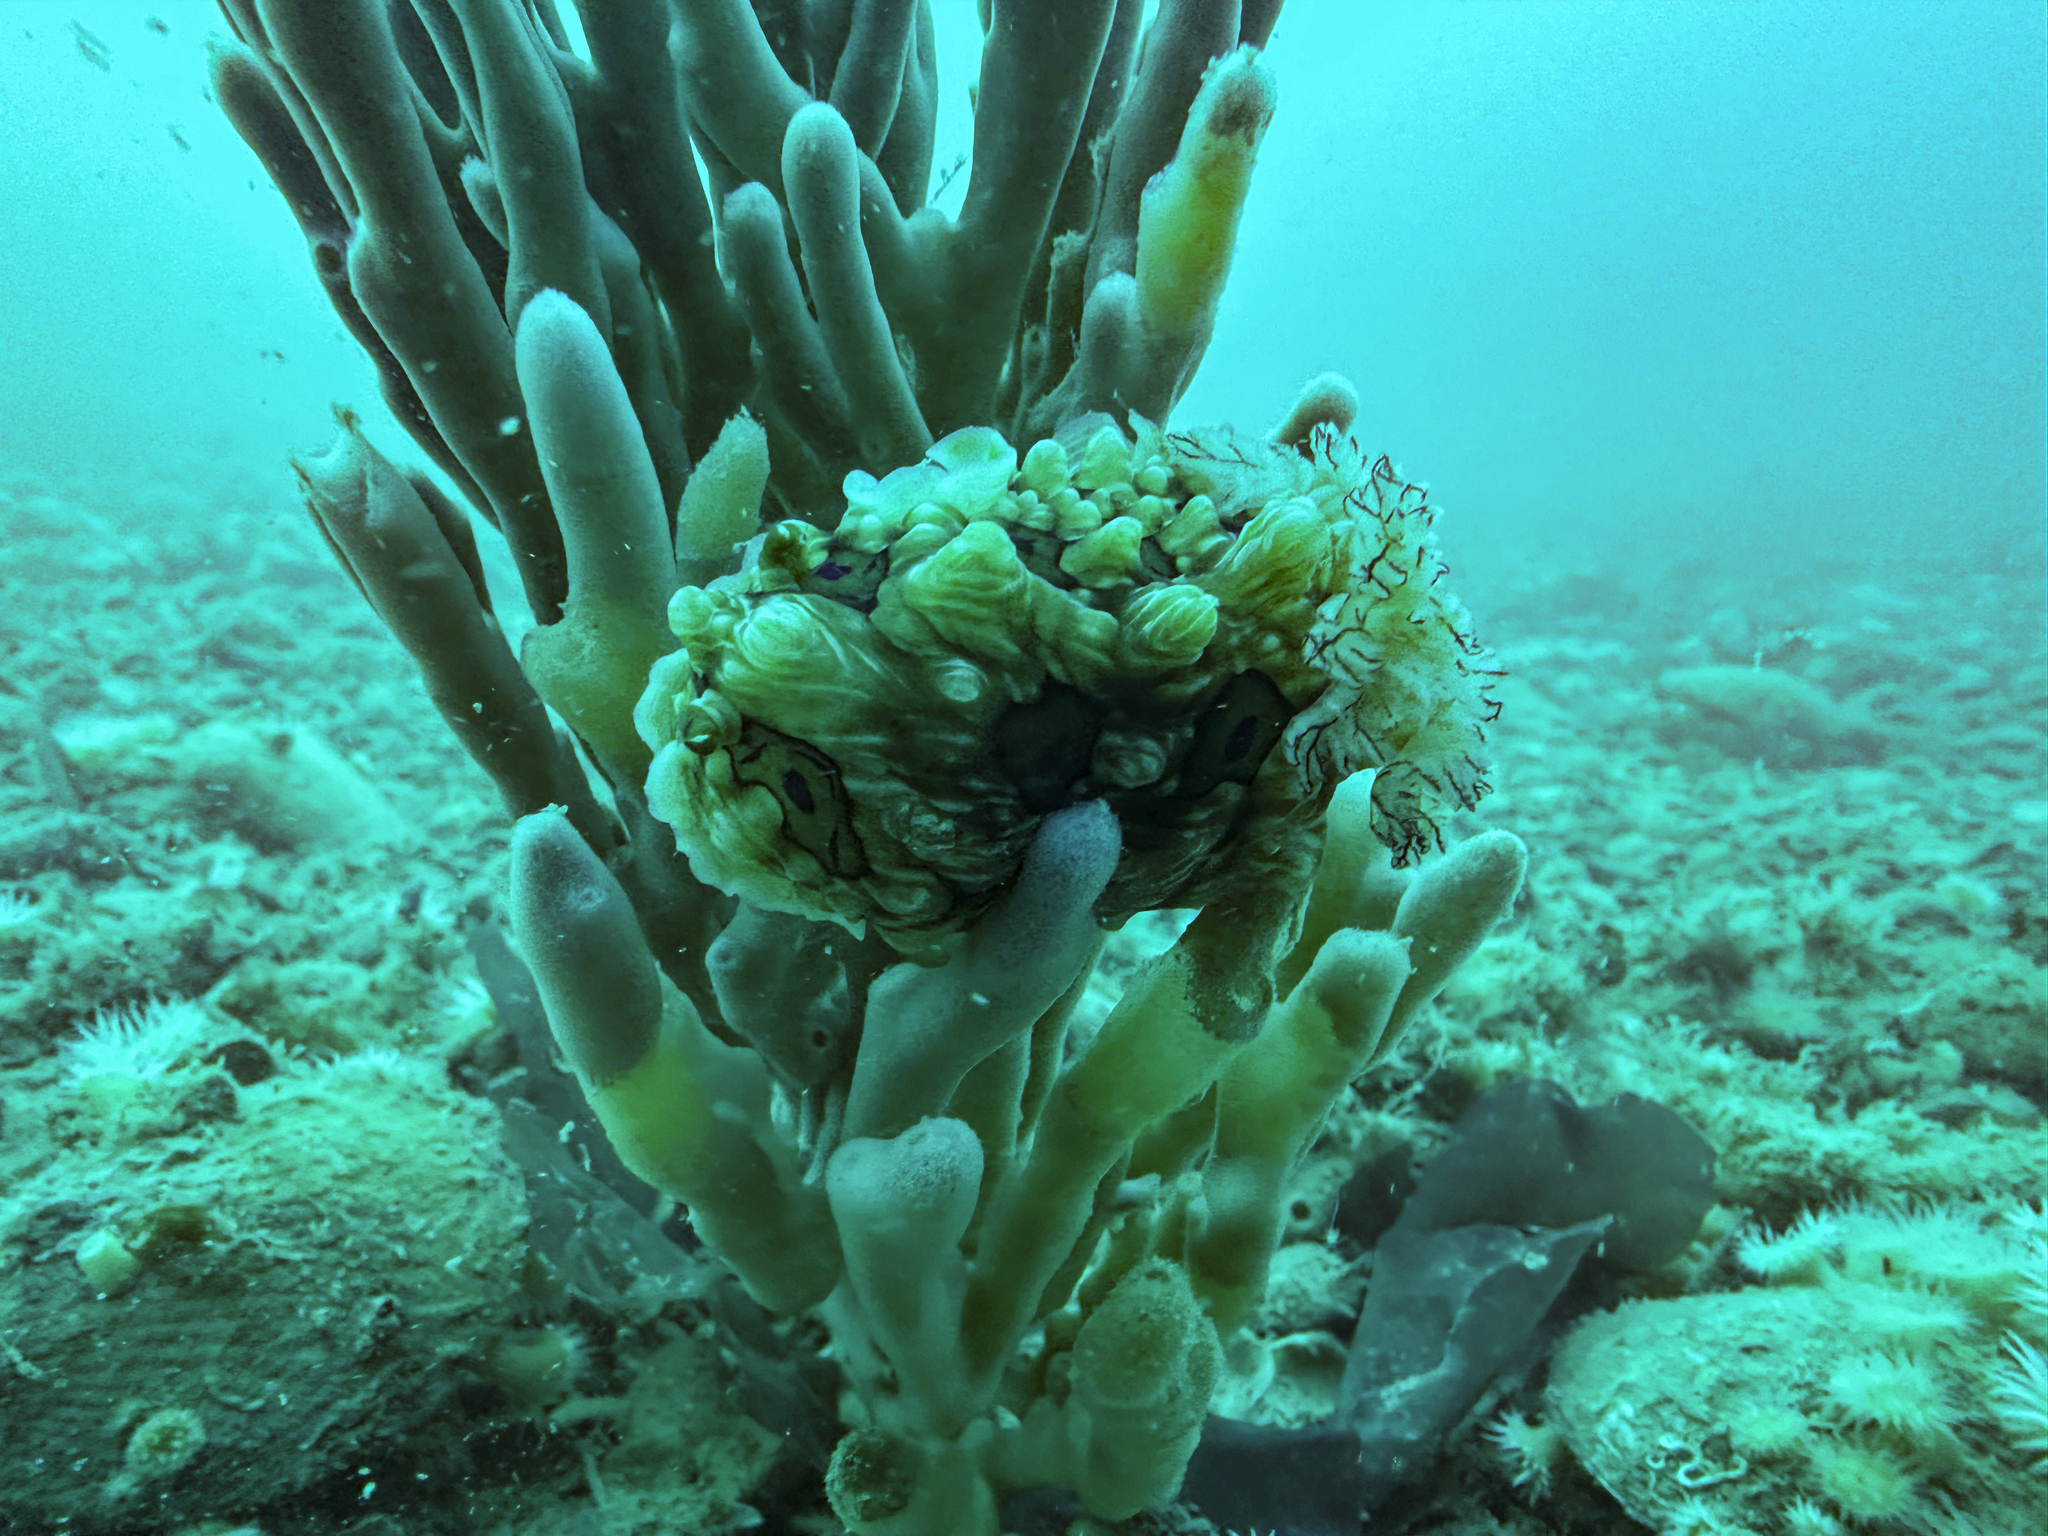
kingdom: Animalia
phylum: Mollusca
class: Gastropoda
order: Nudibranchia
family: Dendrodorididae
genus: Dendrodoris
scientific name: Dendrodoris krusensternii
